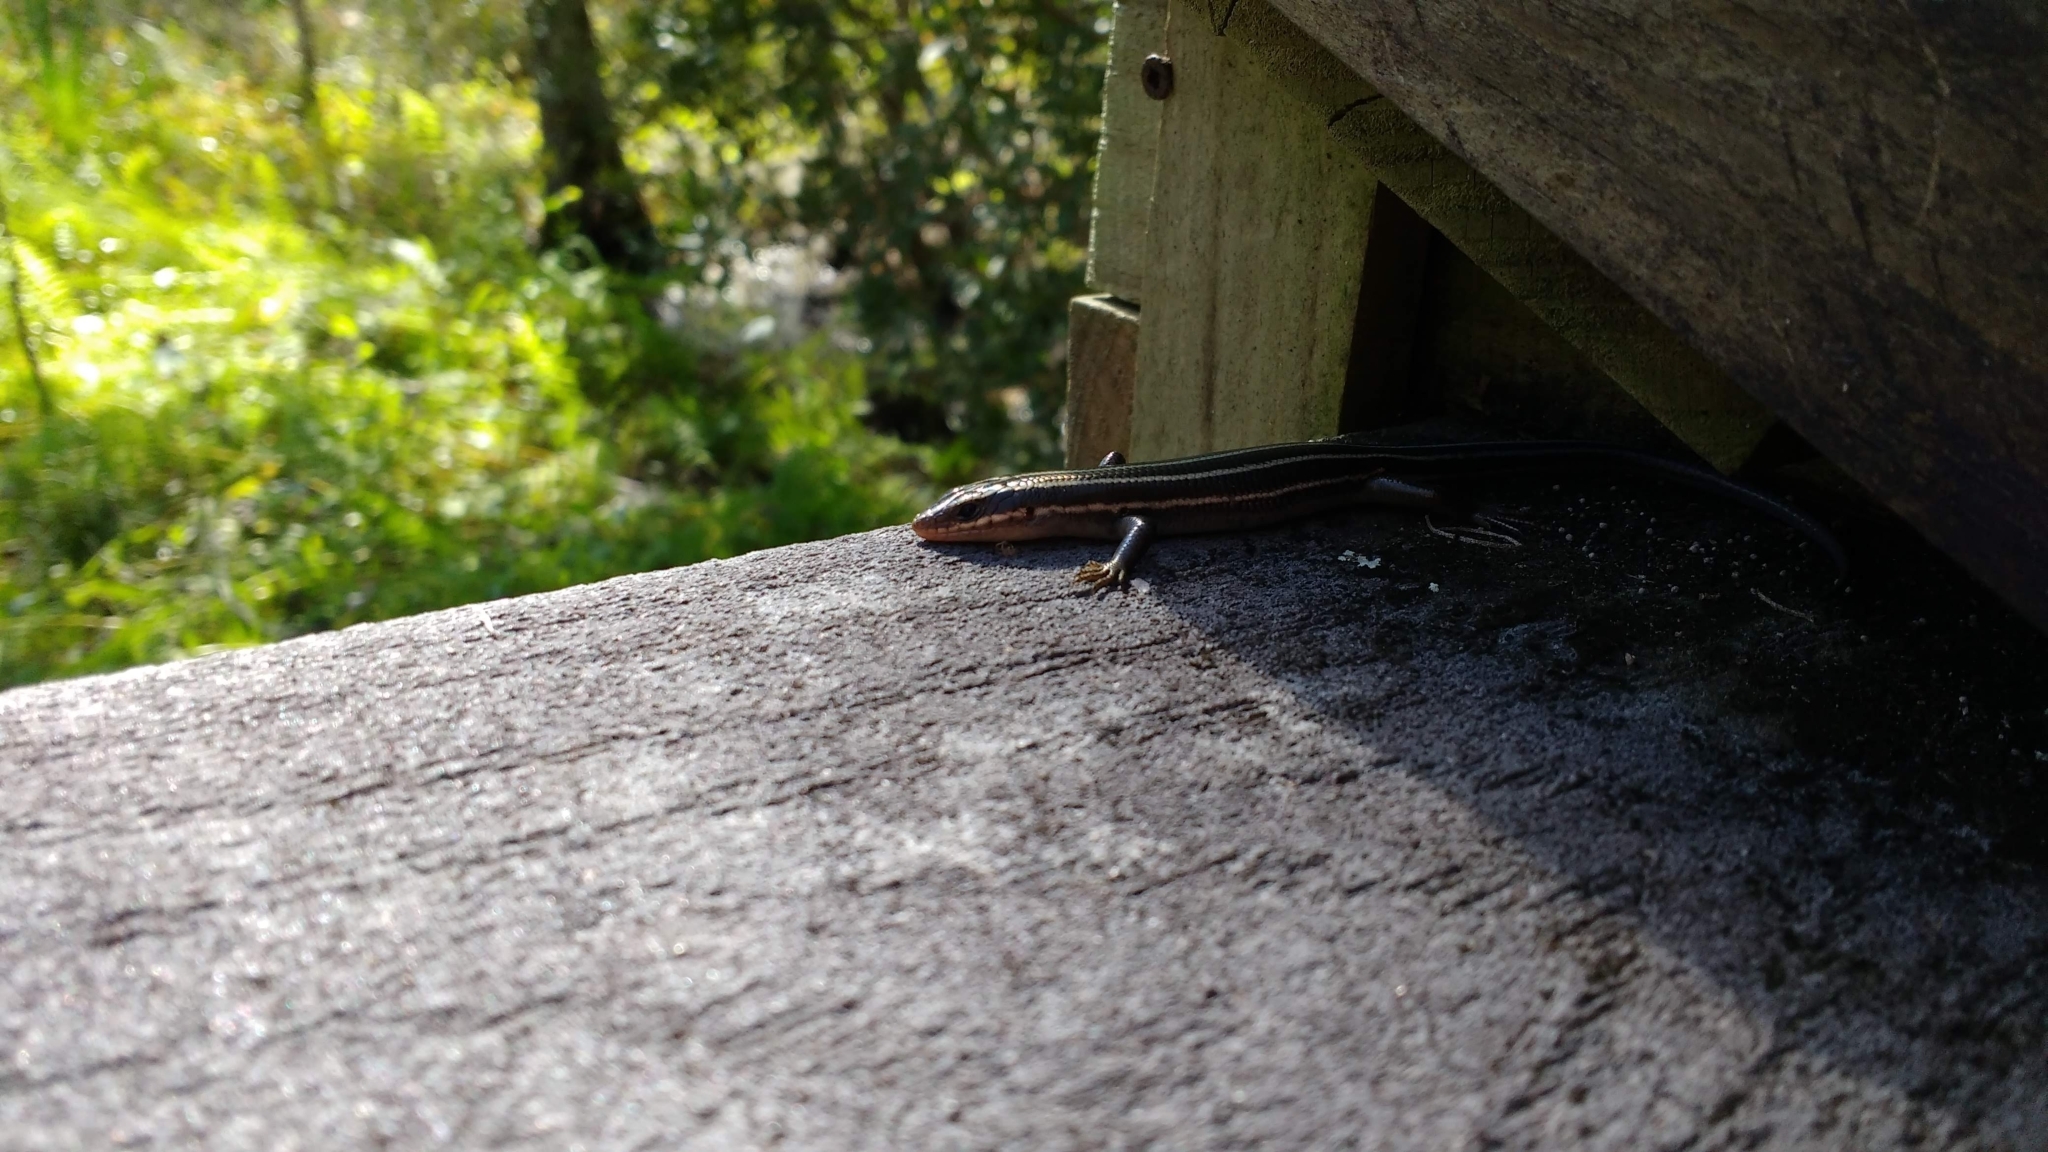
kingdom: Animalia
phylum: Chordata
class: Squamata
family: Scincidae
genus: Plestiodon
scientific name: Plestiodon fasciatus
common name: Five-lined skink
